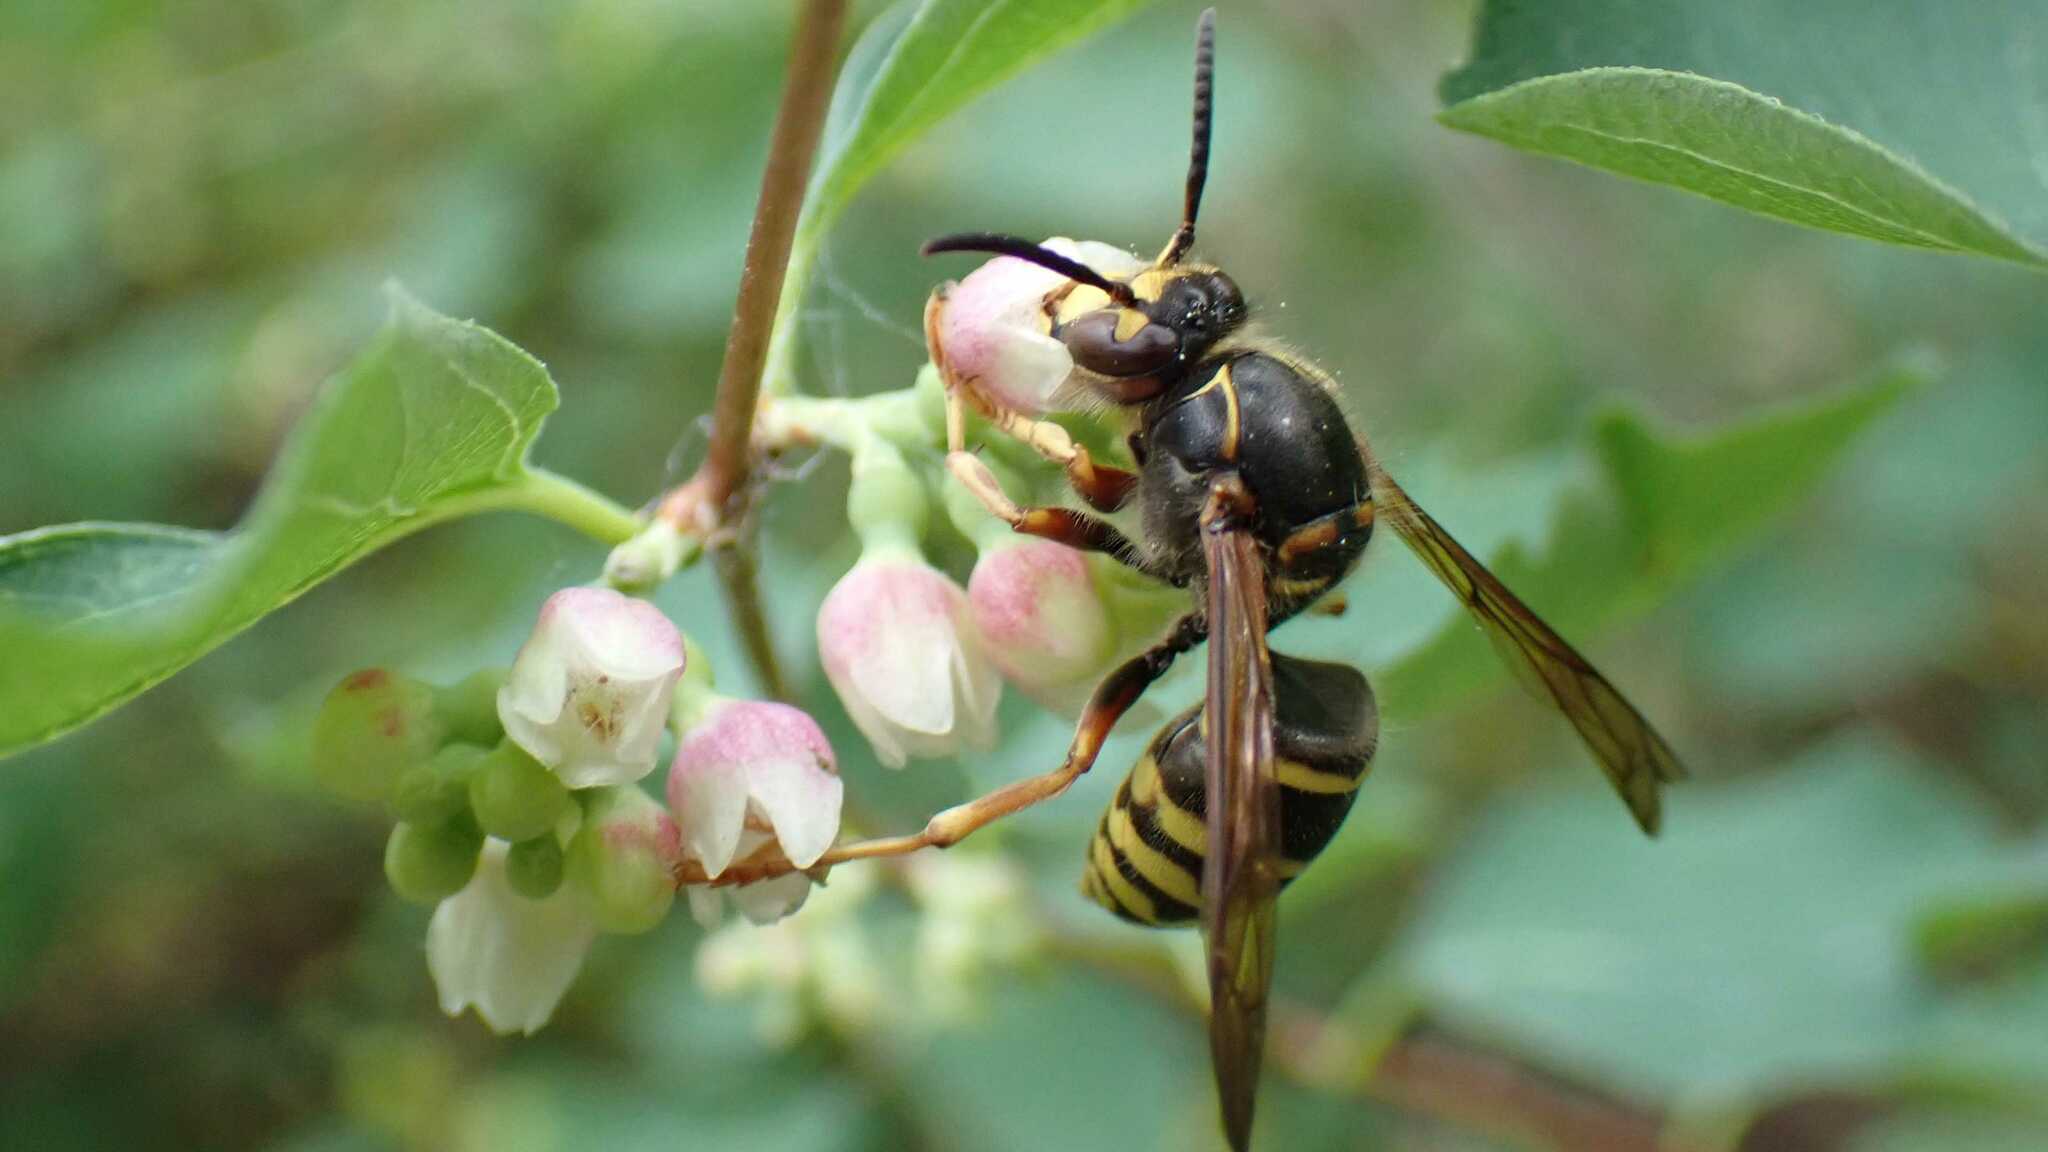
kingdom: Animalia
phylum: Arthropoda
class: Insecta
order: Hymenoptera
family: Vespidae
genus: Dolichovespula
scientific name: Dolichovespula media
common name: Median wasp
